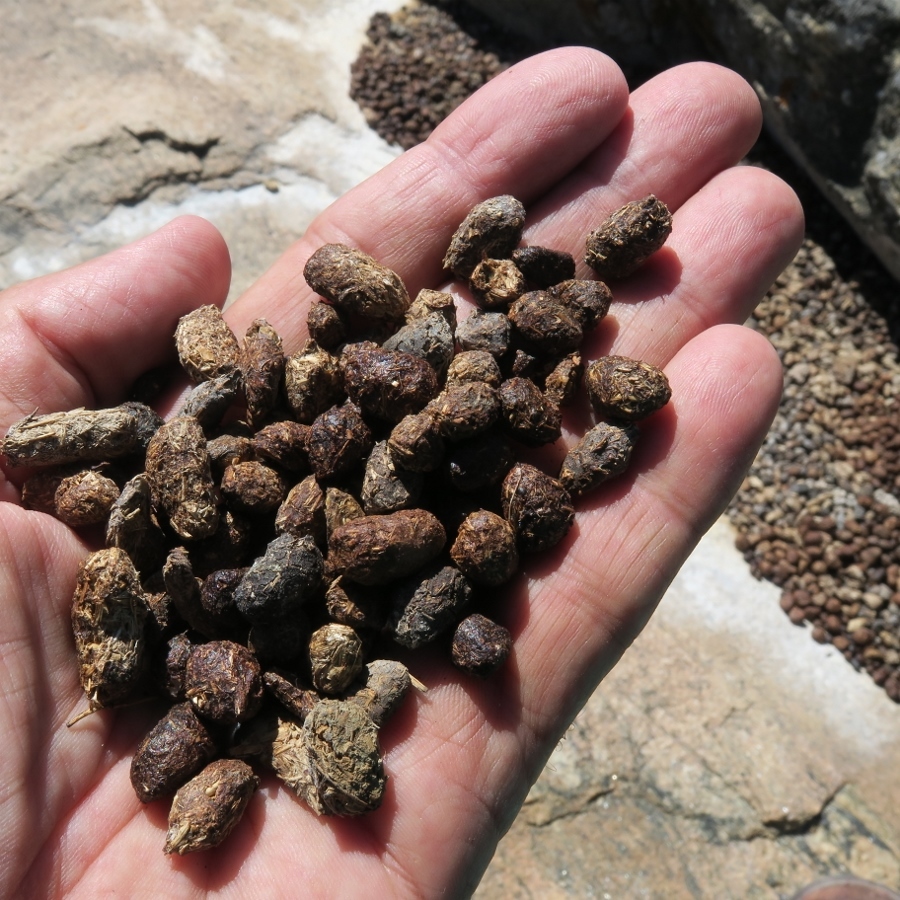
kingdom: Animalia
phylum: Chordata
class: Mammalia
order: Hyracoidea
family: Procaviidae
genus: Procavia
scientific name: Procavia capensis
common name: Rock hyrax
